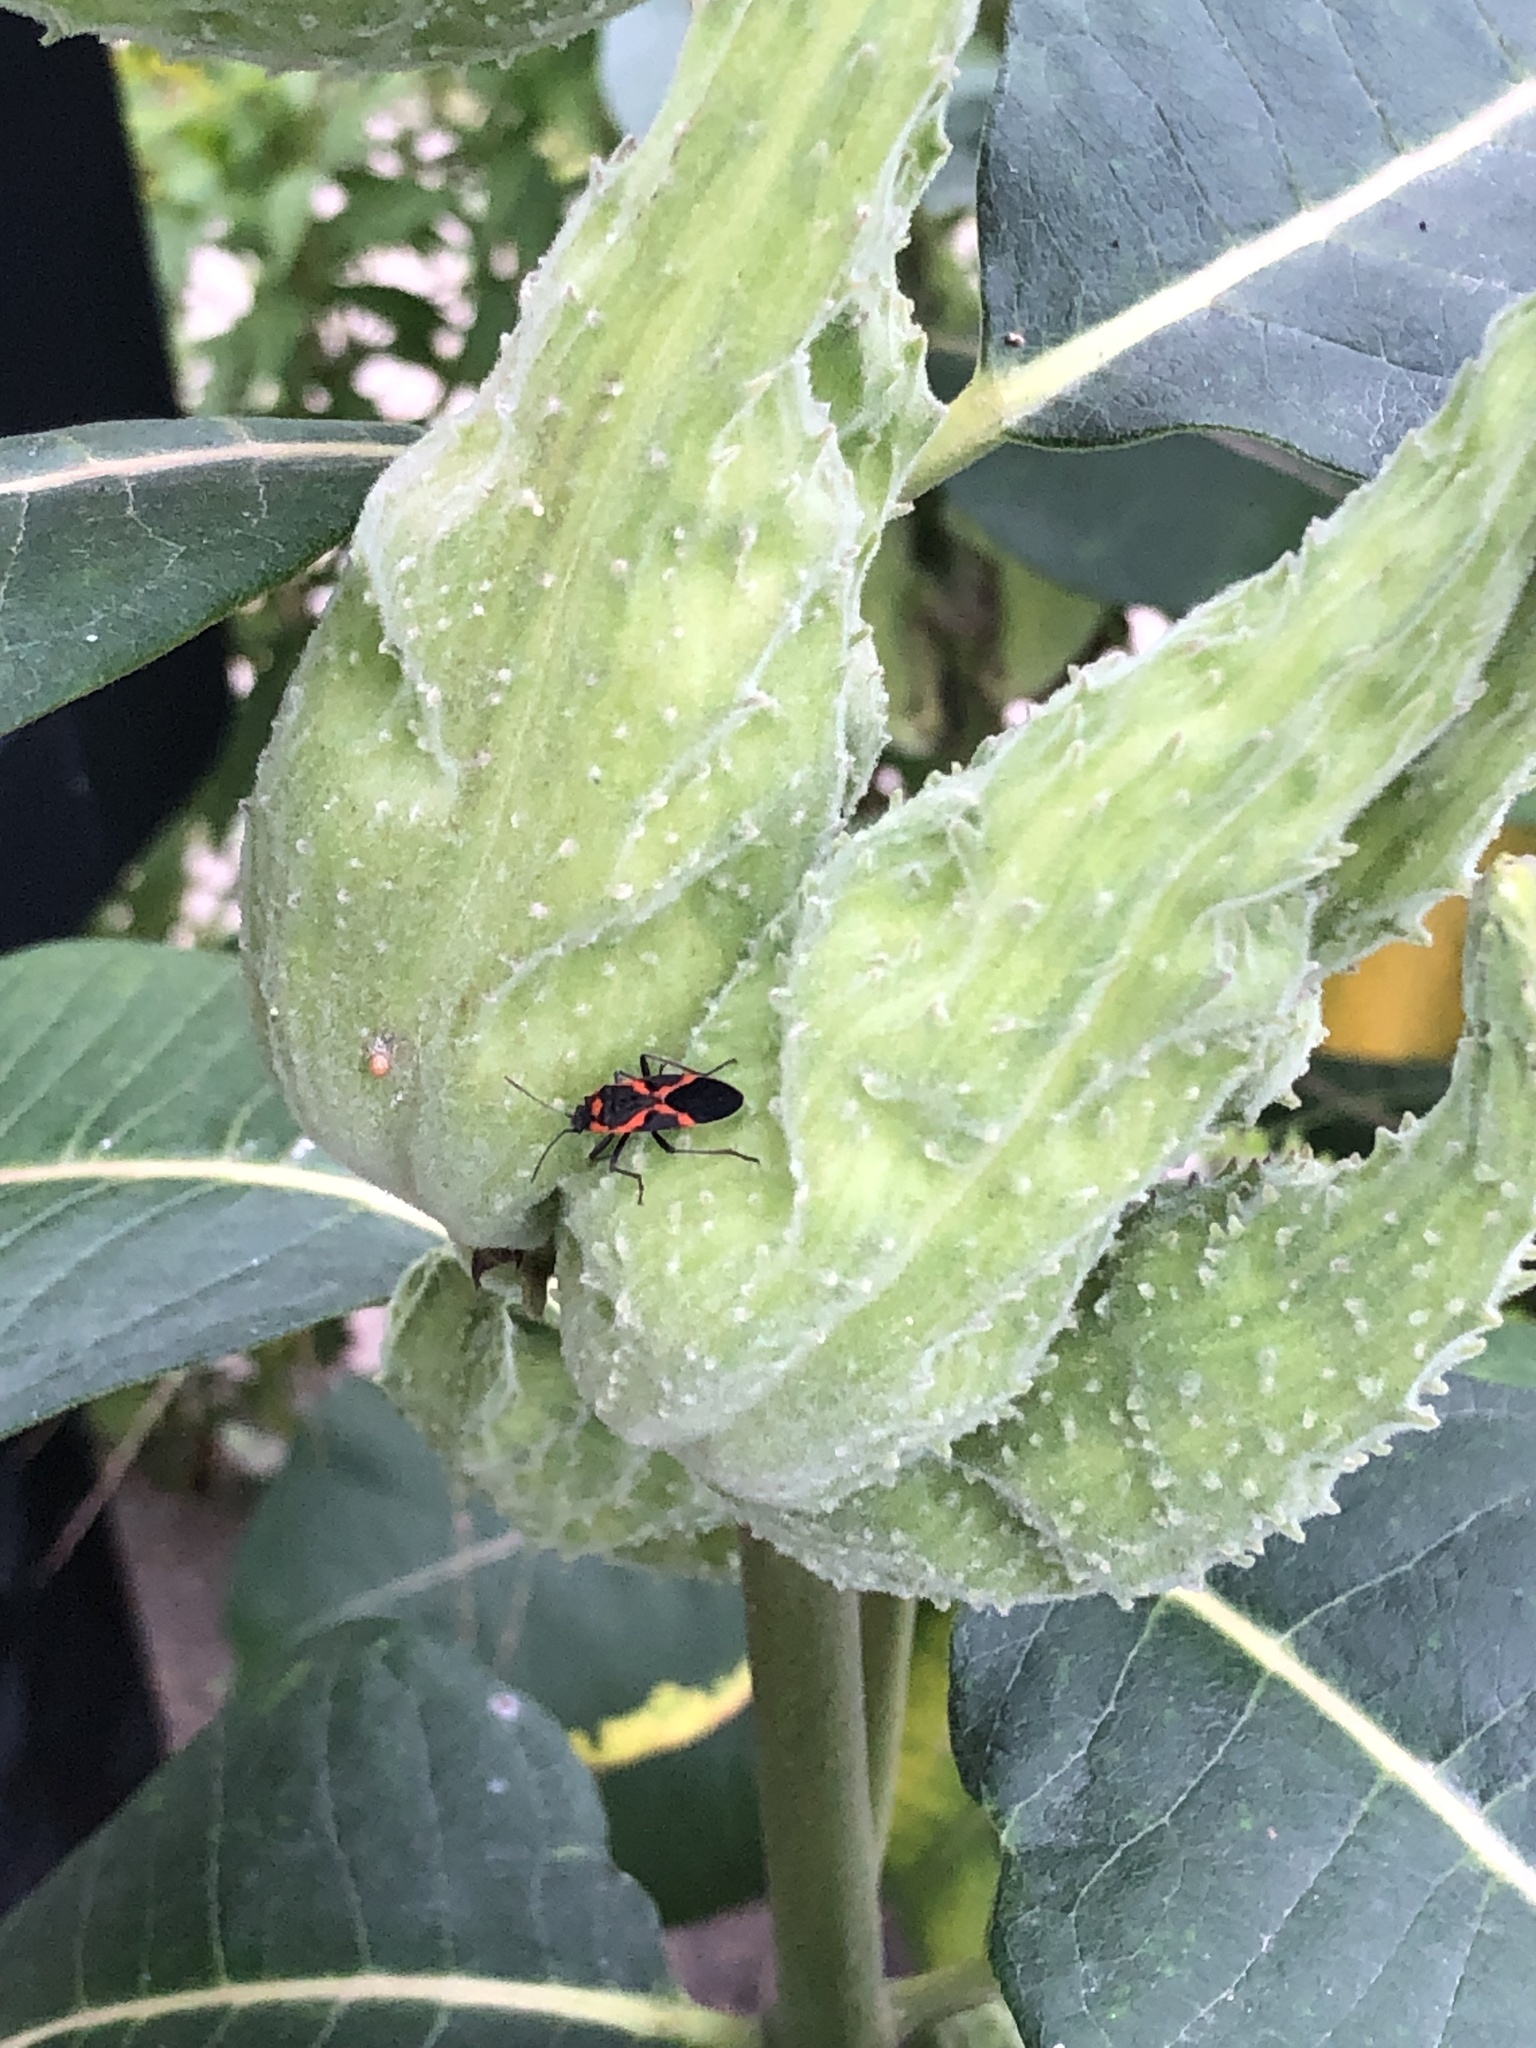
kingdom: Animalia
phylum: Arthropoda
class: Insecta
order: Hemiptera
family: Lygaeidae
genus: Lygaeus
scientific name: Lygaeus kalmii
